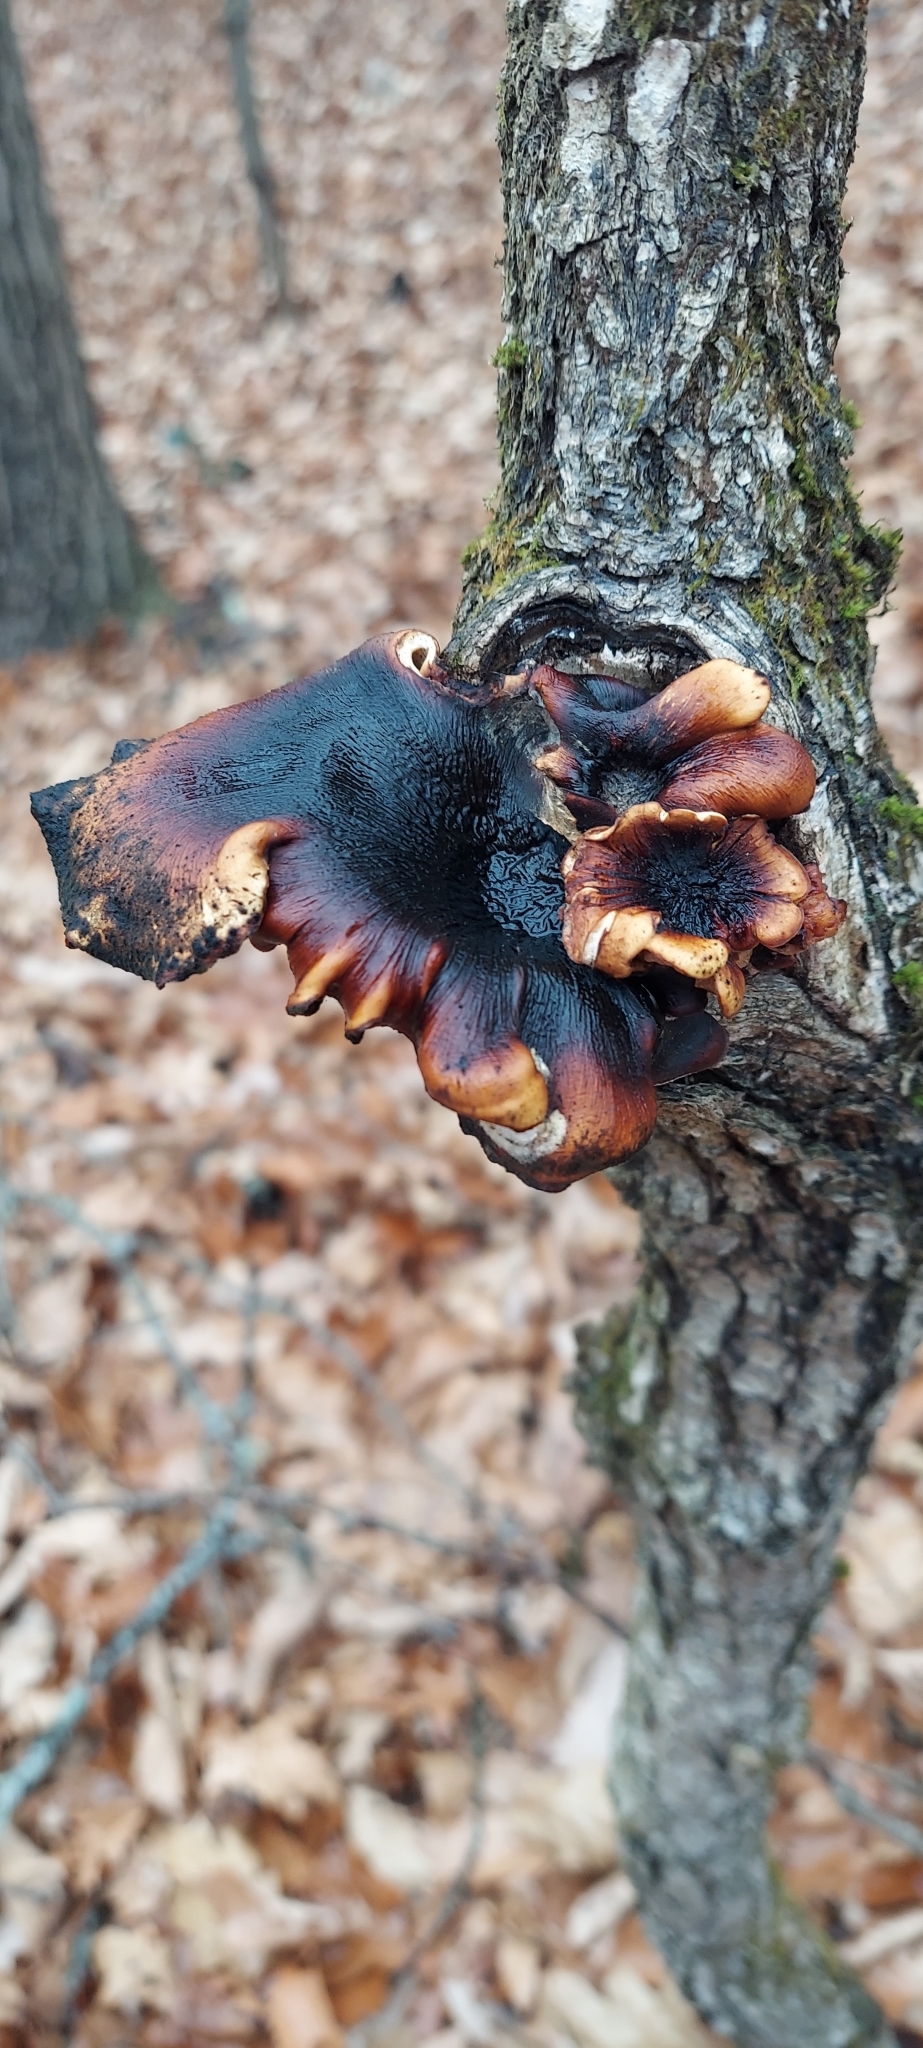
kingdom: Fungi
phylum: Basidiomycota
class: Agaricomycetes
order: Polyporales
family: Polyporaceae
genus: Picipes
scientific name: Picipes badius
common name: Bay polypore
